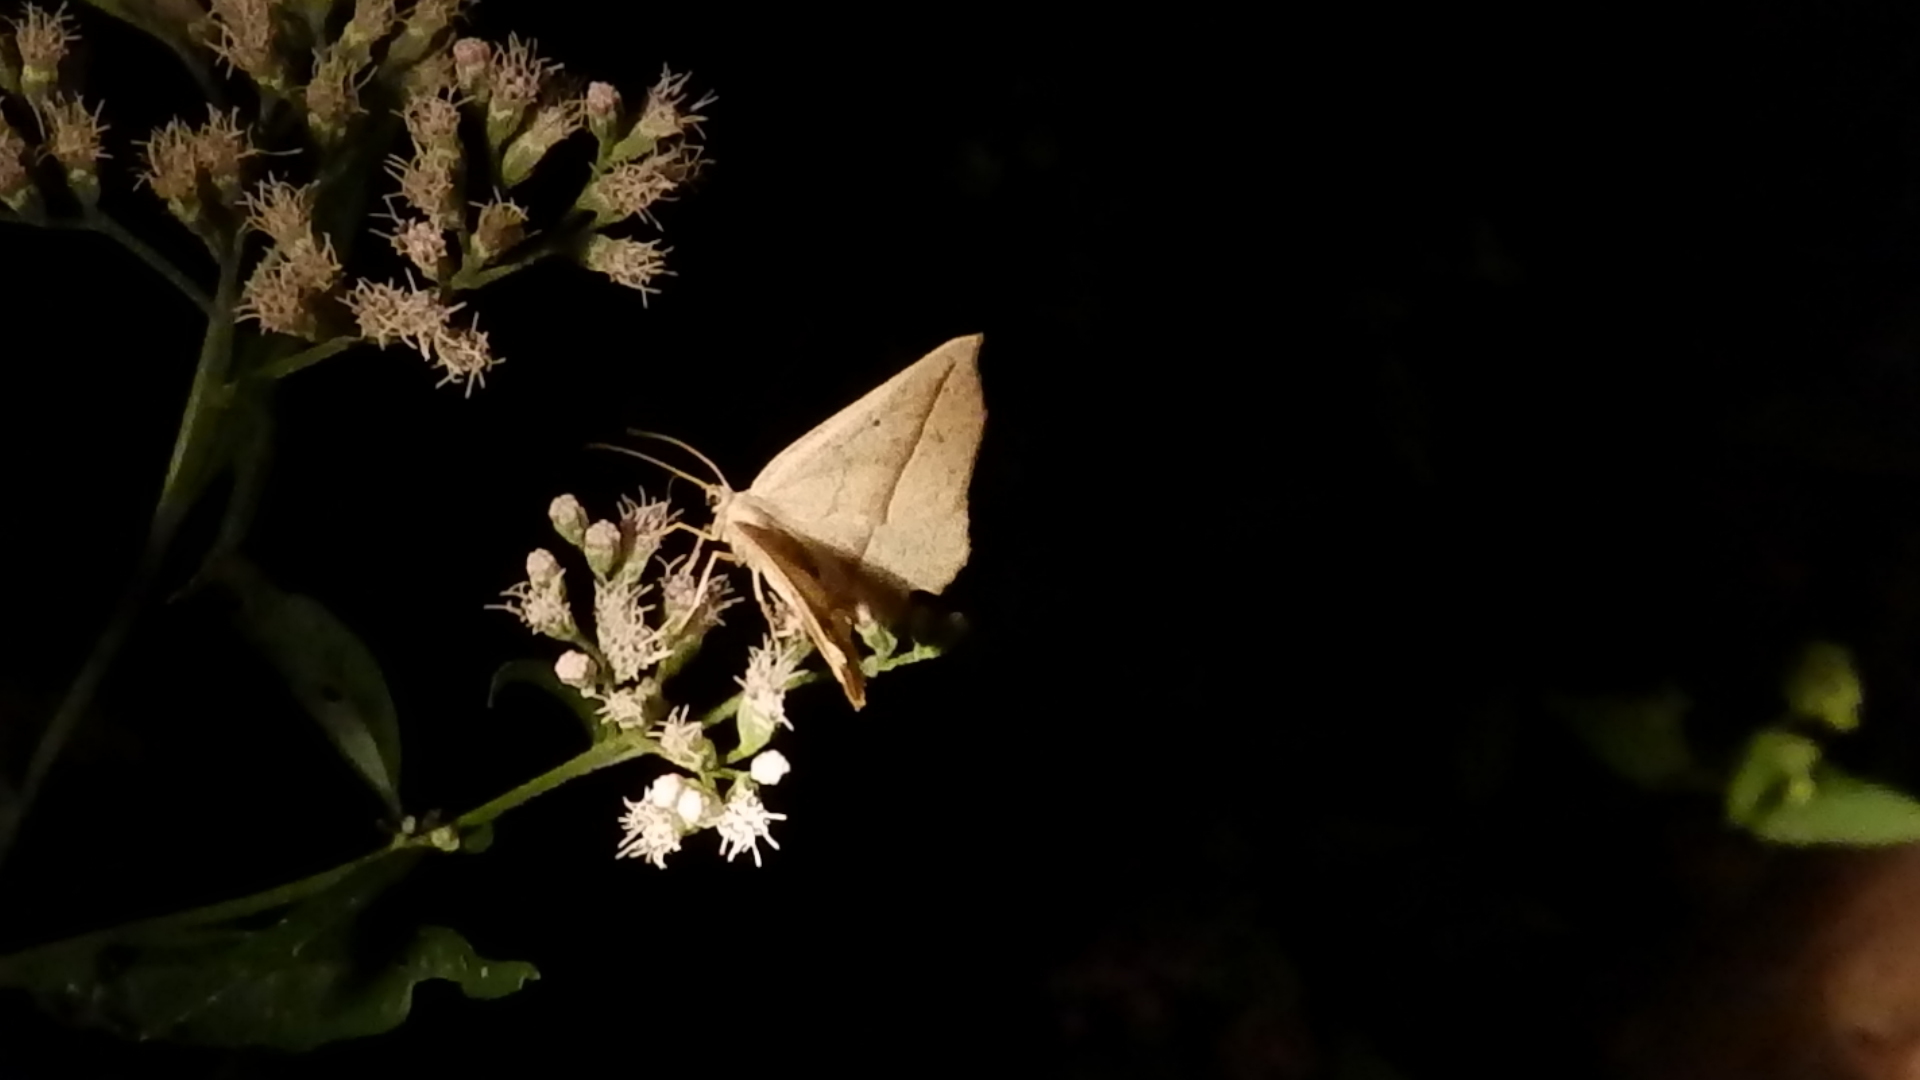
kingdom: Animalia
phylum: Arthropoda
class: Insecta
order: Lepidoptera
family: Geometridae
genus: Eusarca
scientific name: Eusarca confusaria
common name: Confused eusarca
